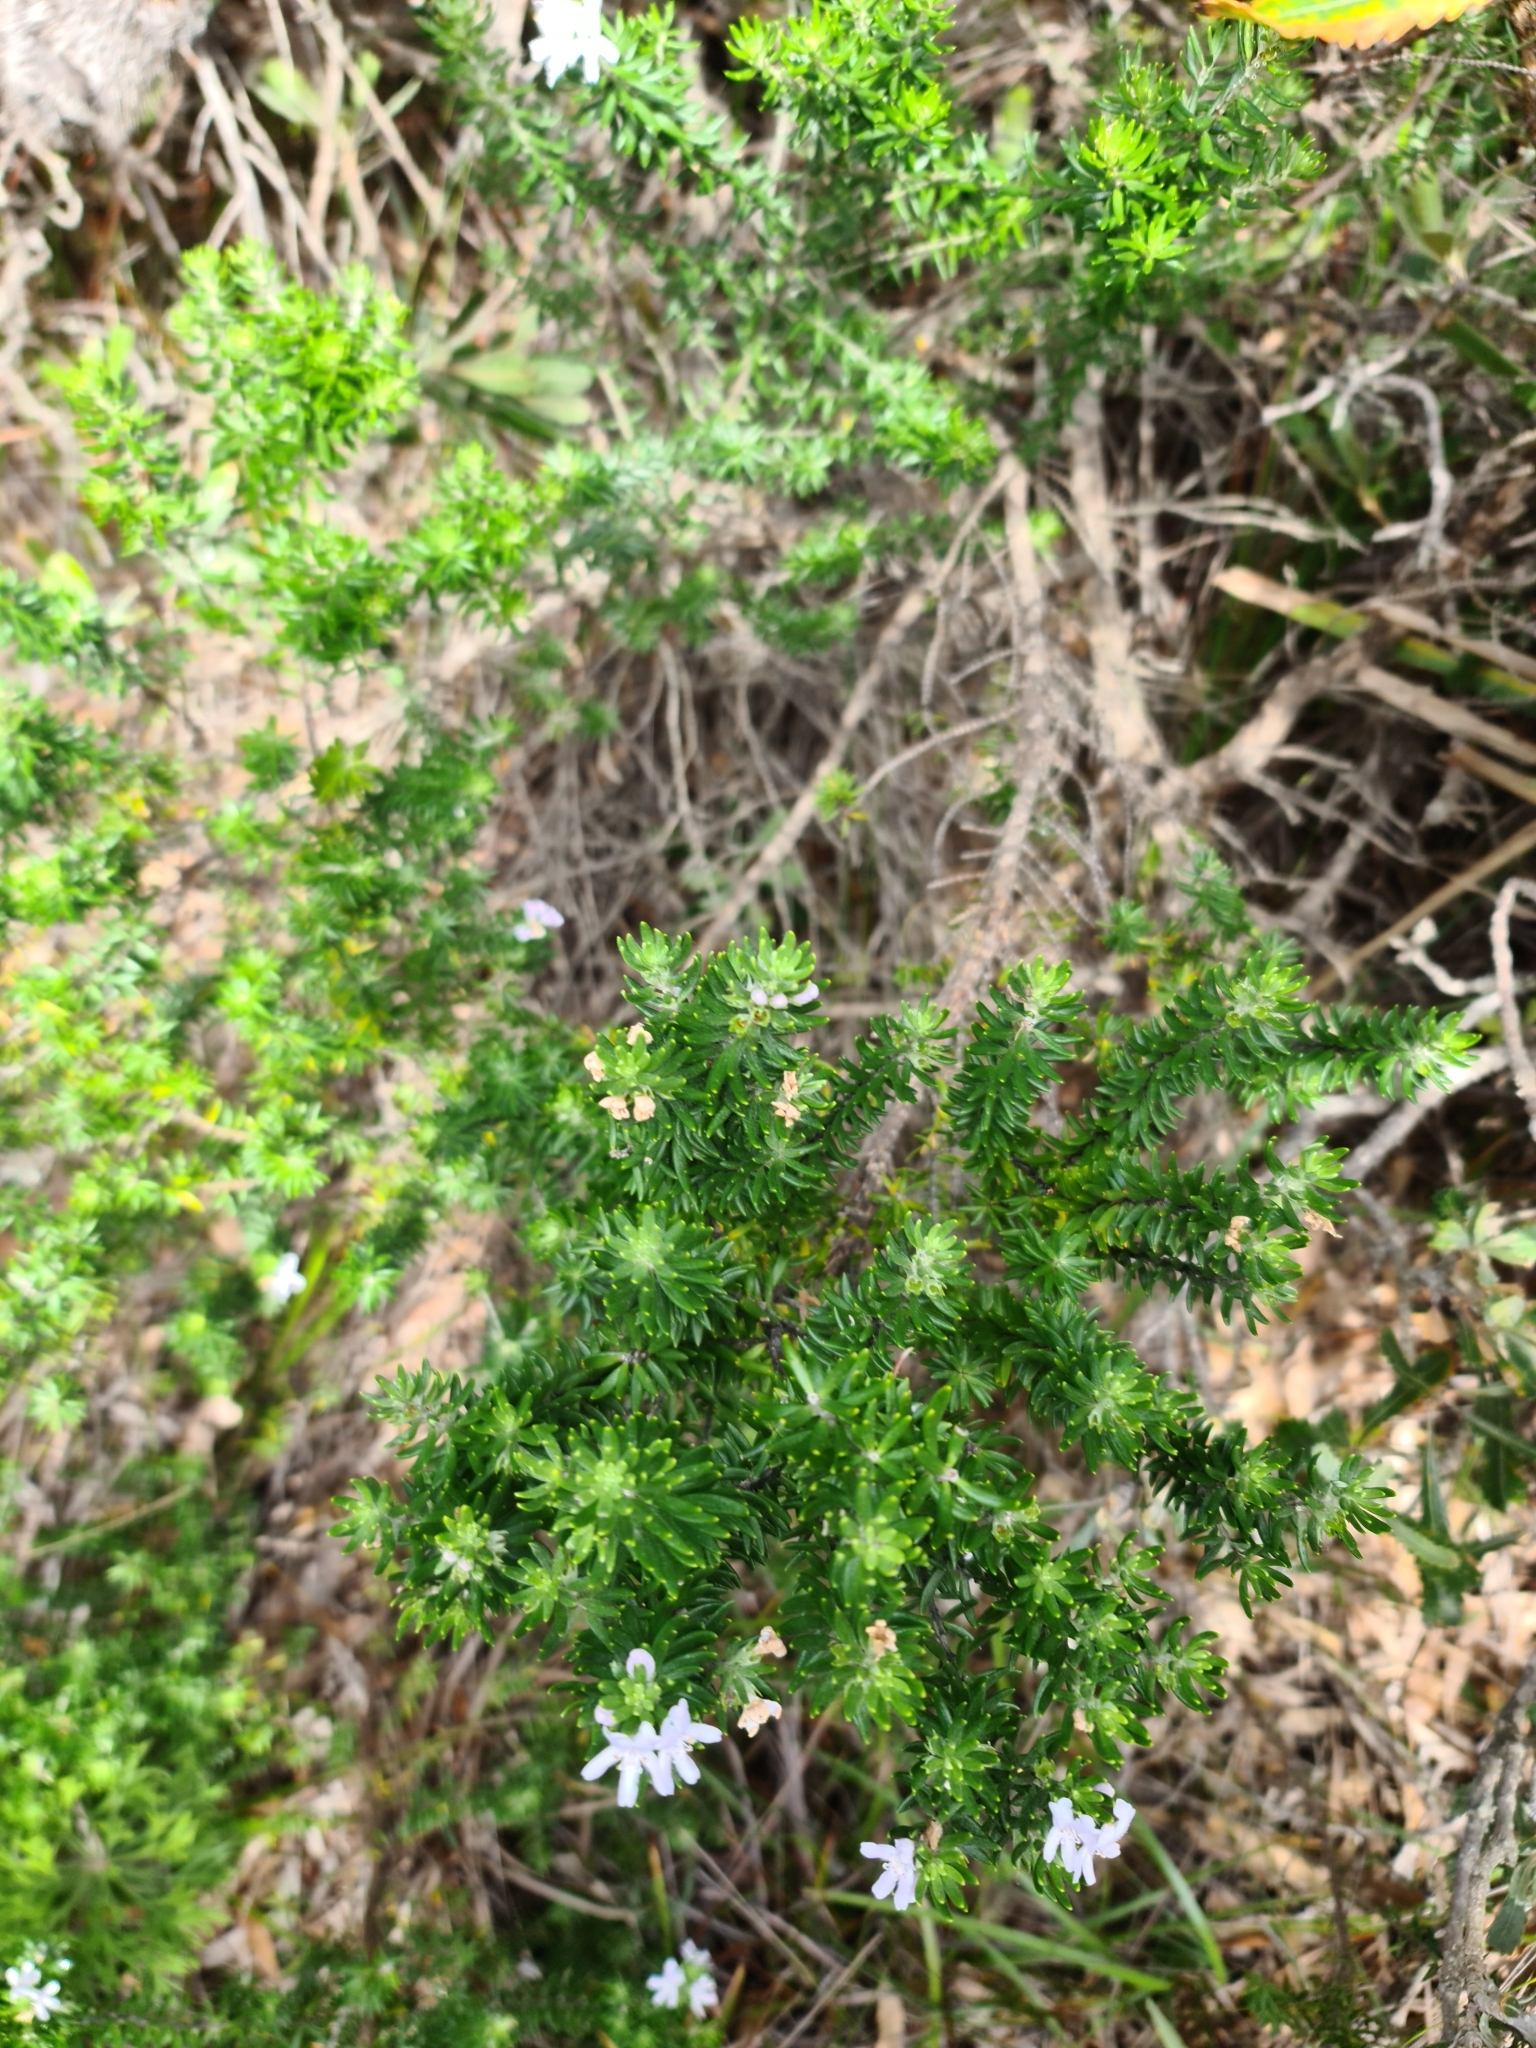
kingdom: Plantae
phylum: Tracheophyta
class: Magnoliopsida
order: Lamiales
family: Lamiaceae
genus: Westringia
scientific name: Westringia fruticosa
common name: Coastal-rosemary
